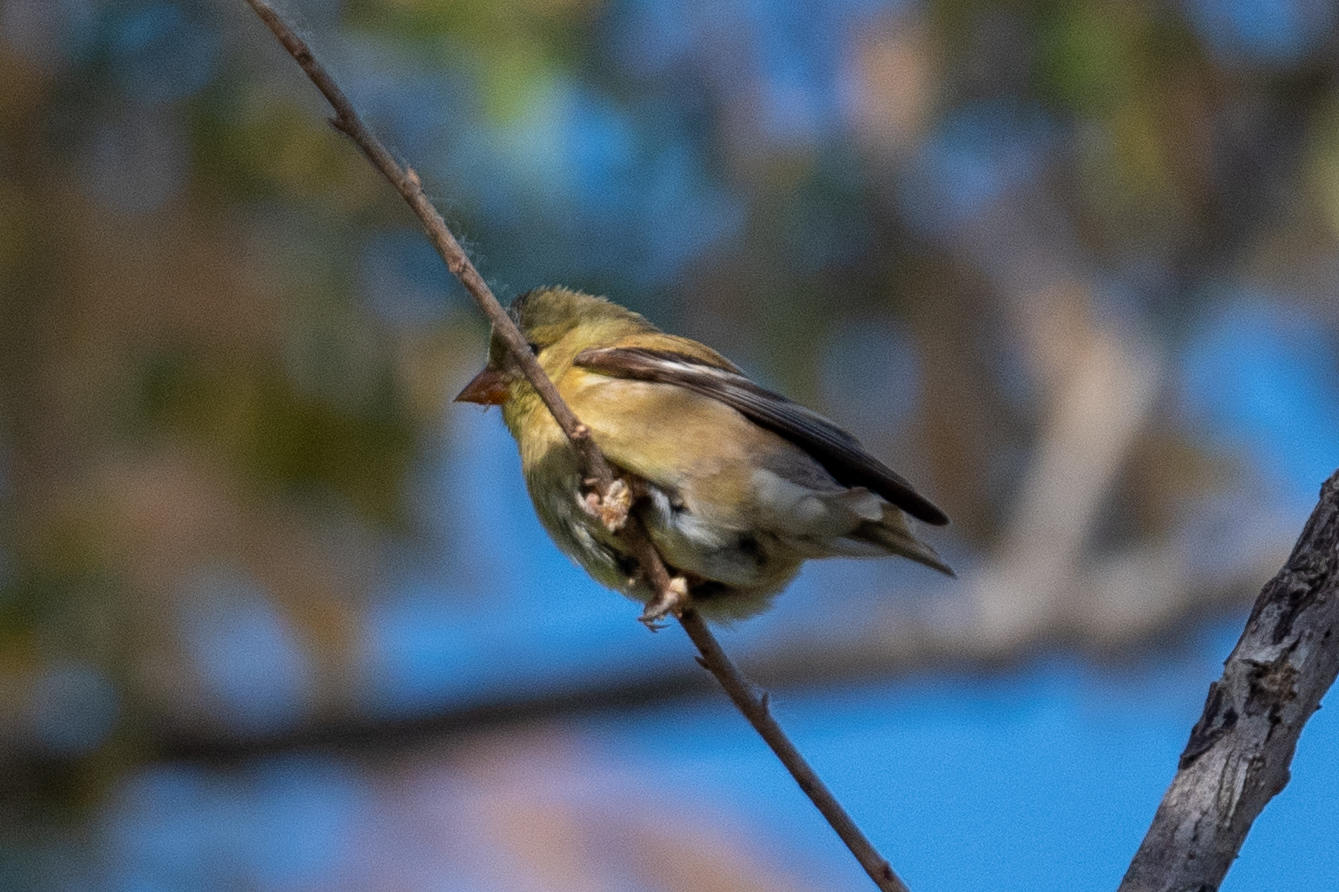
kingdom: Animalia
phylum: Chordata
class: Aves
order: Passeriformes
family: Fringillidae
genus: Spinus
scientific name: Spinus tristis
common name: American goldfinch
